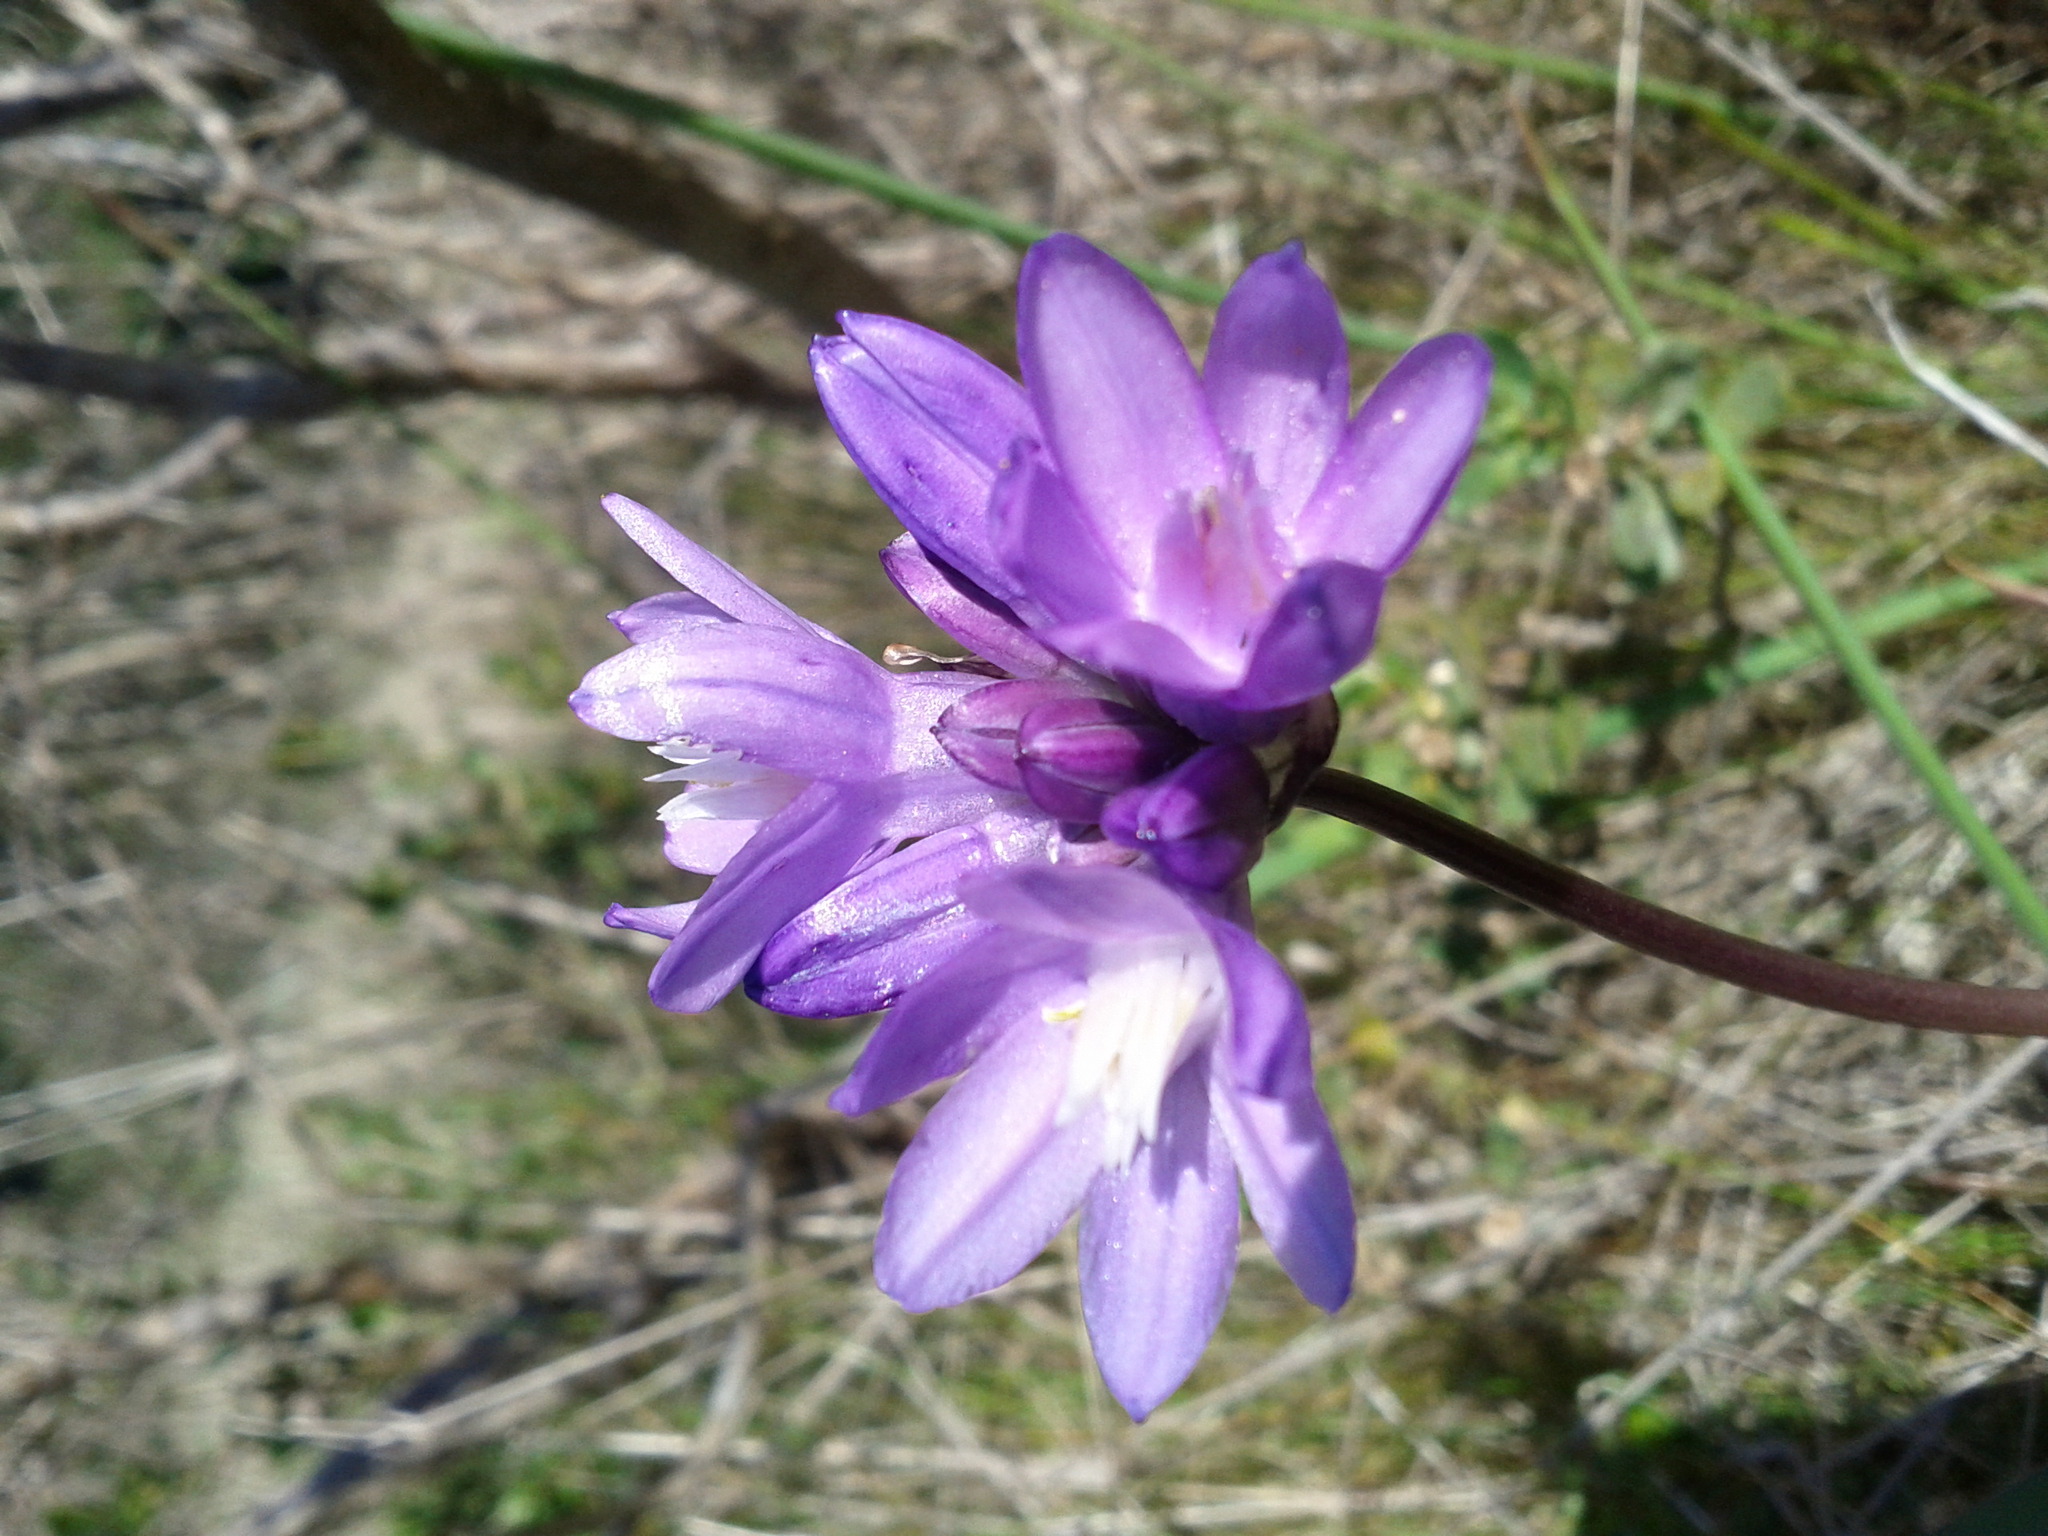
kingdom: Plantae
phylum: Tracheophyta
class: Liliopsida
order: Asparagales
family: Asparagaceae
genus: Dipterostemon
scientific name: Dipterostemon capitatus
